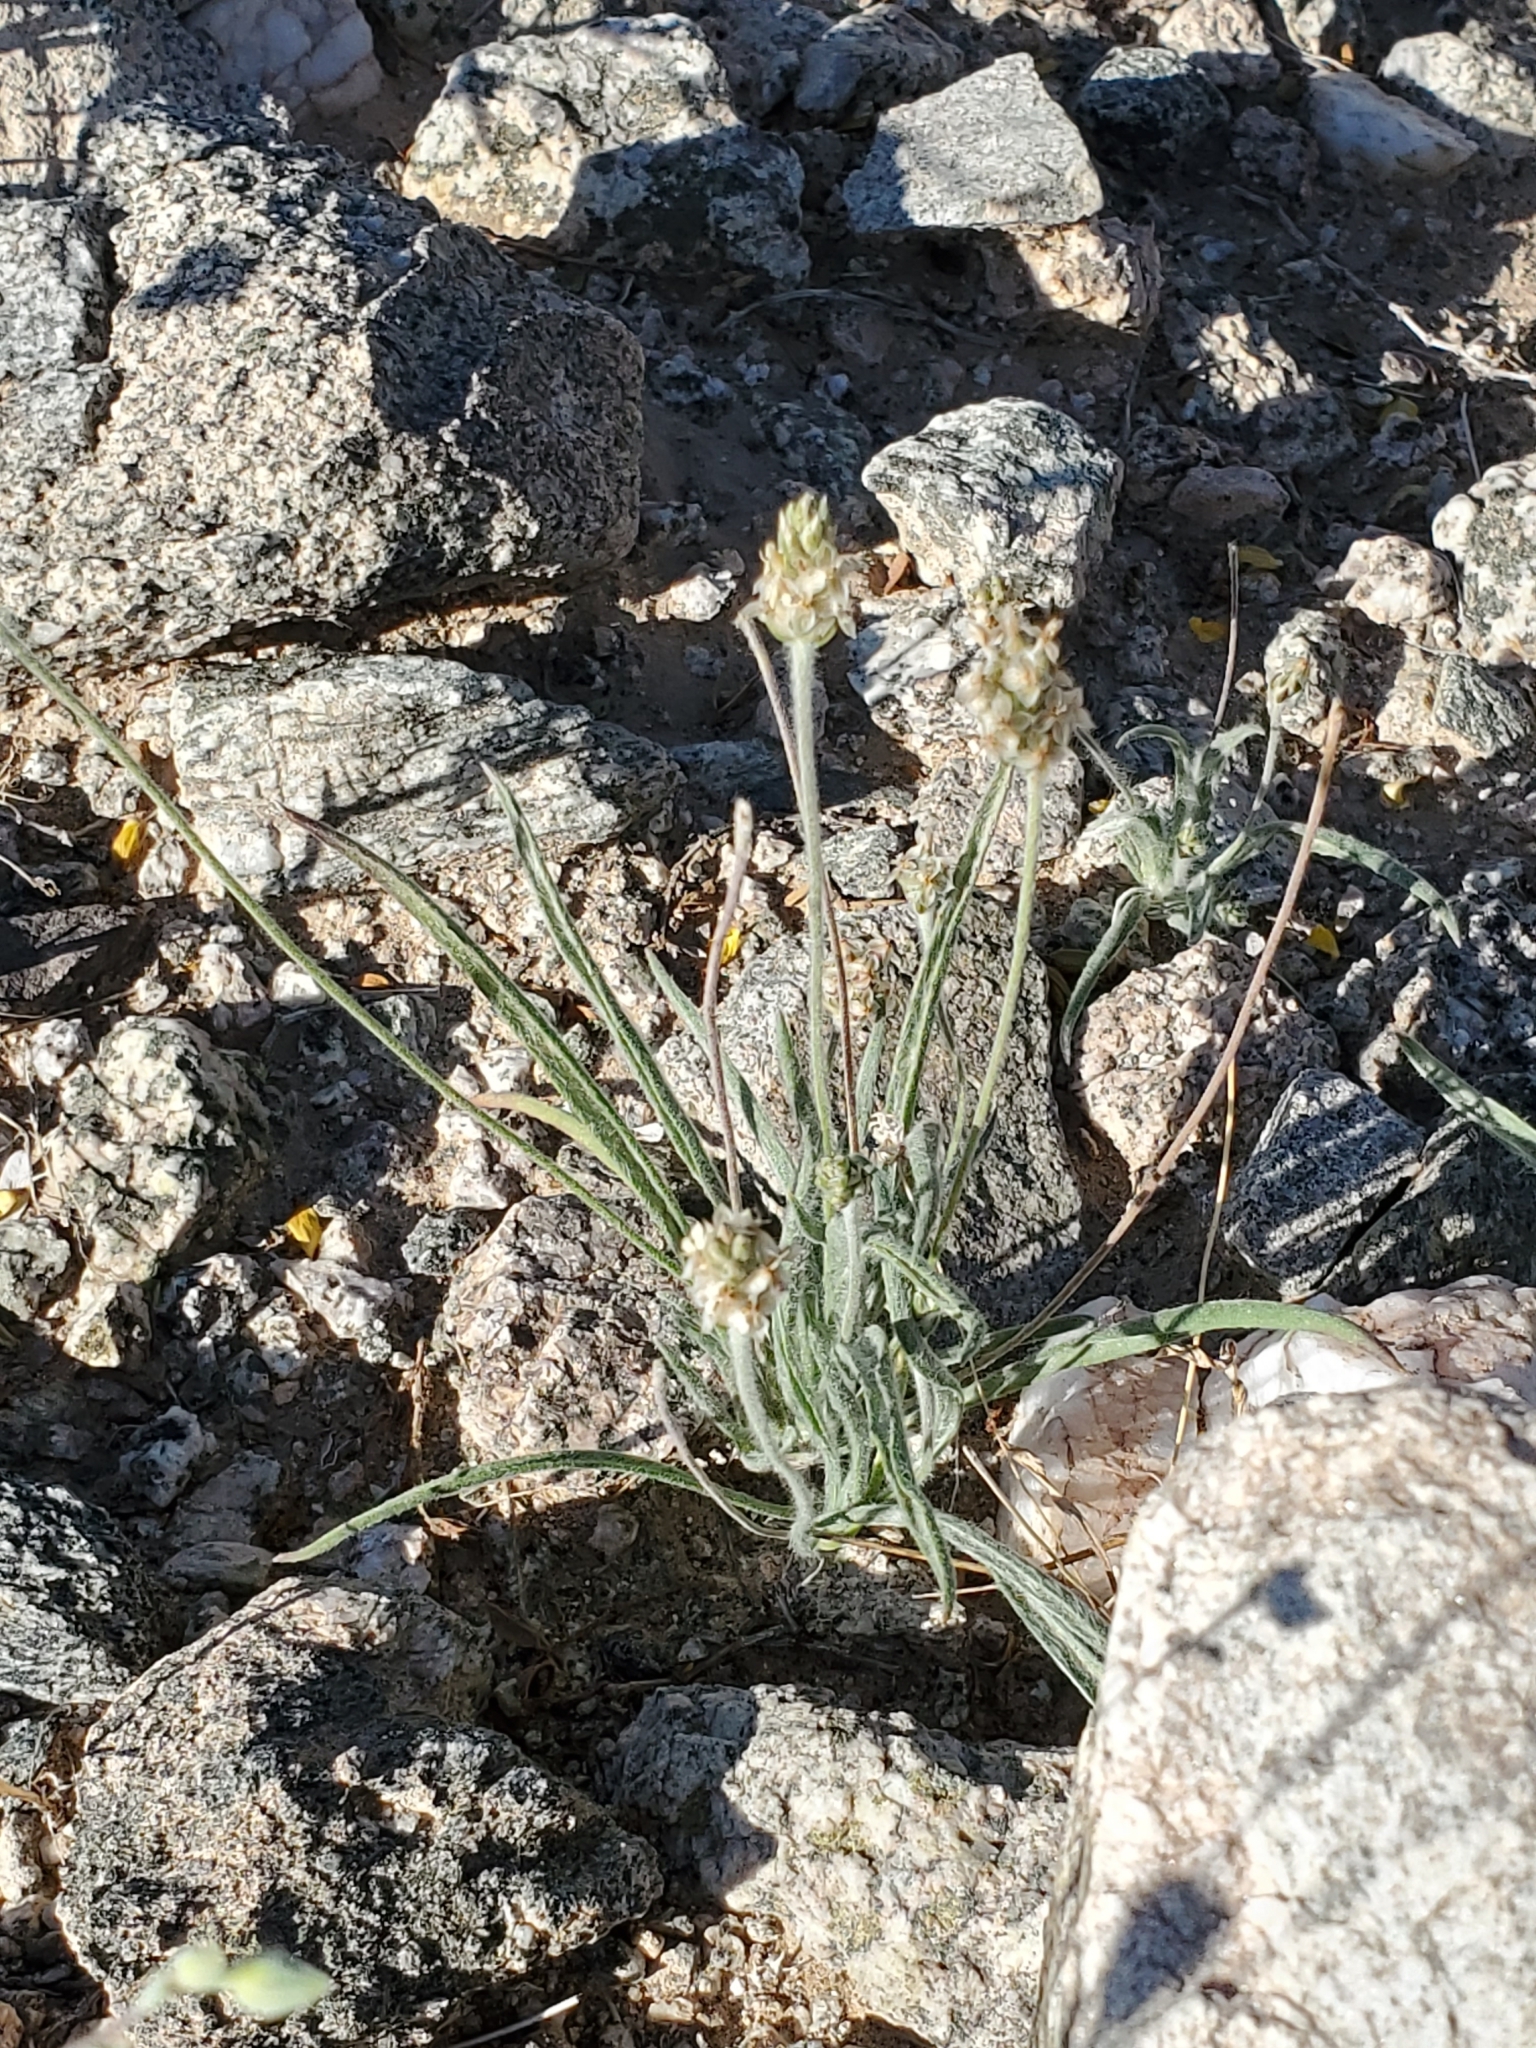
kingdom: Plantae
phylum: Tracheophyta
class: Magnoliopsida
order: Lamiales
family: Plantaginaceae
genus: Plantago
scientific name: Plantago ovata
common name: Blond plantain
